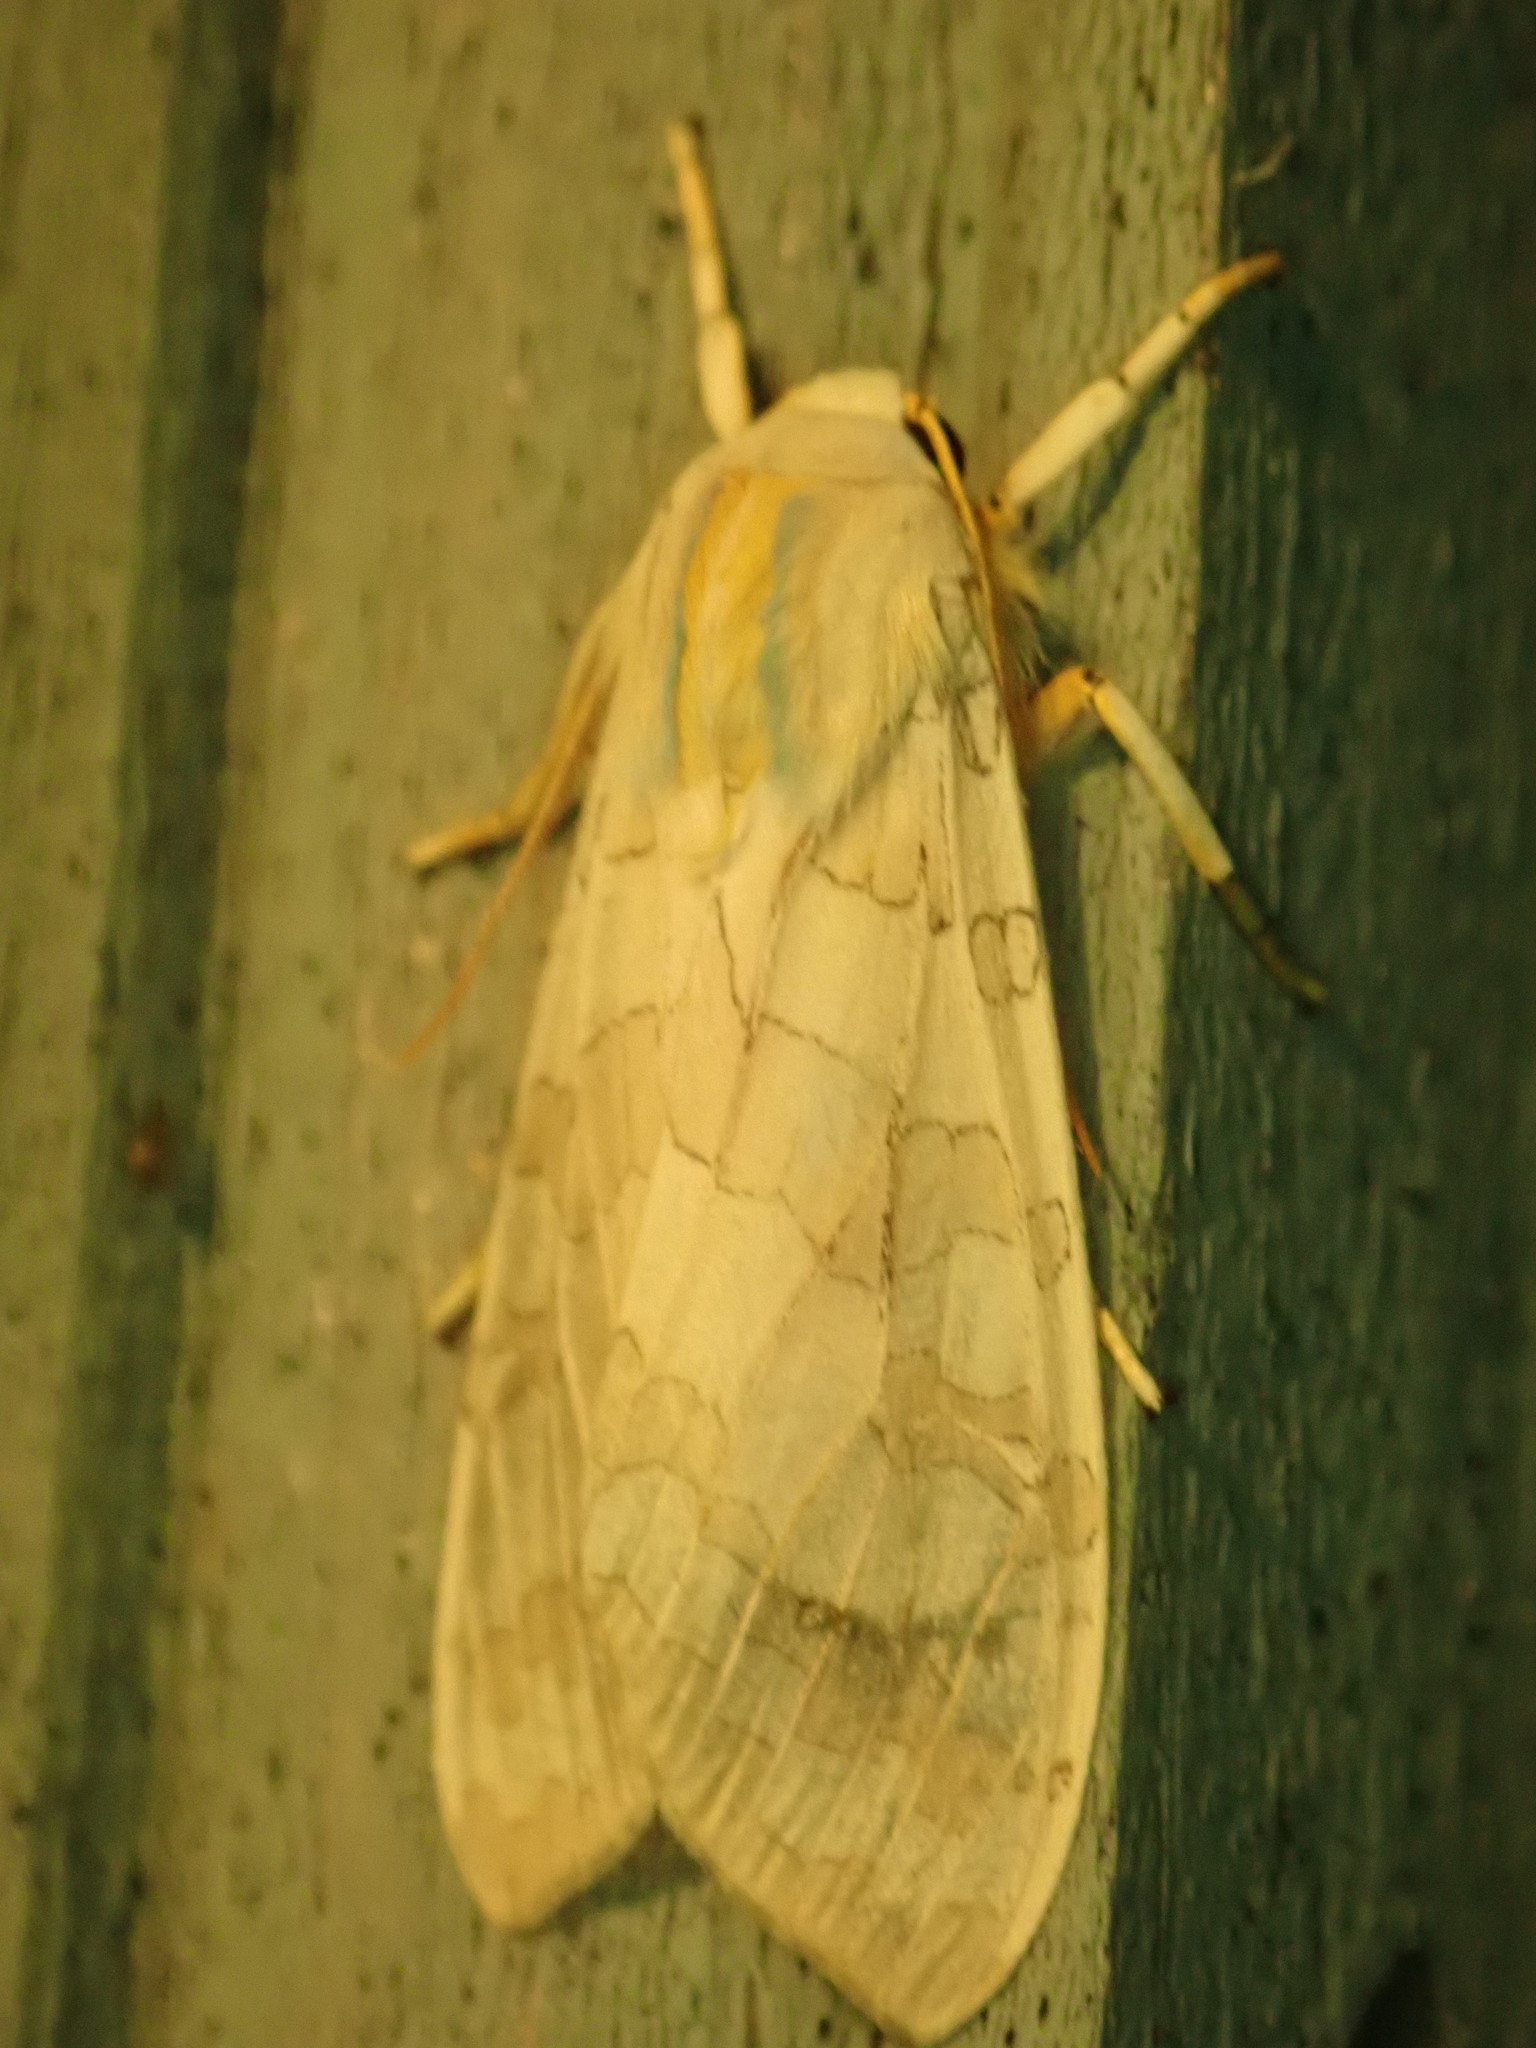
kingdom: Animalia
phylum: Arthropoda
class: Insecta
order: Lepidoptera
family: Erebidae
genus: Halysidota
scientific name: Halysidota tessellaris
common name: Banded tussock moth
